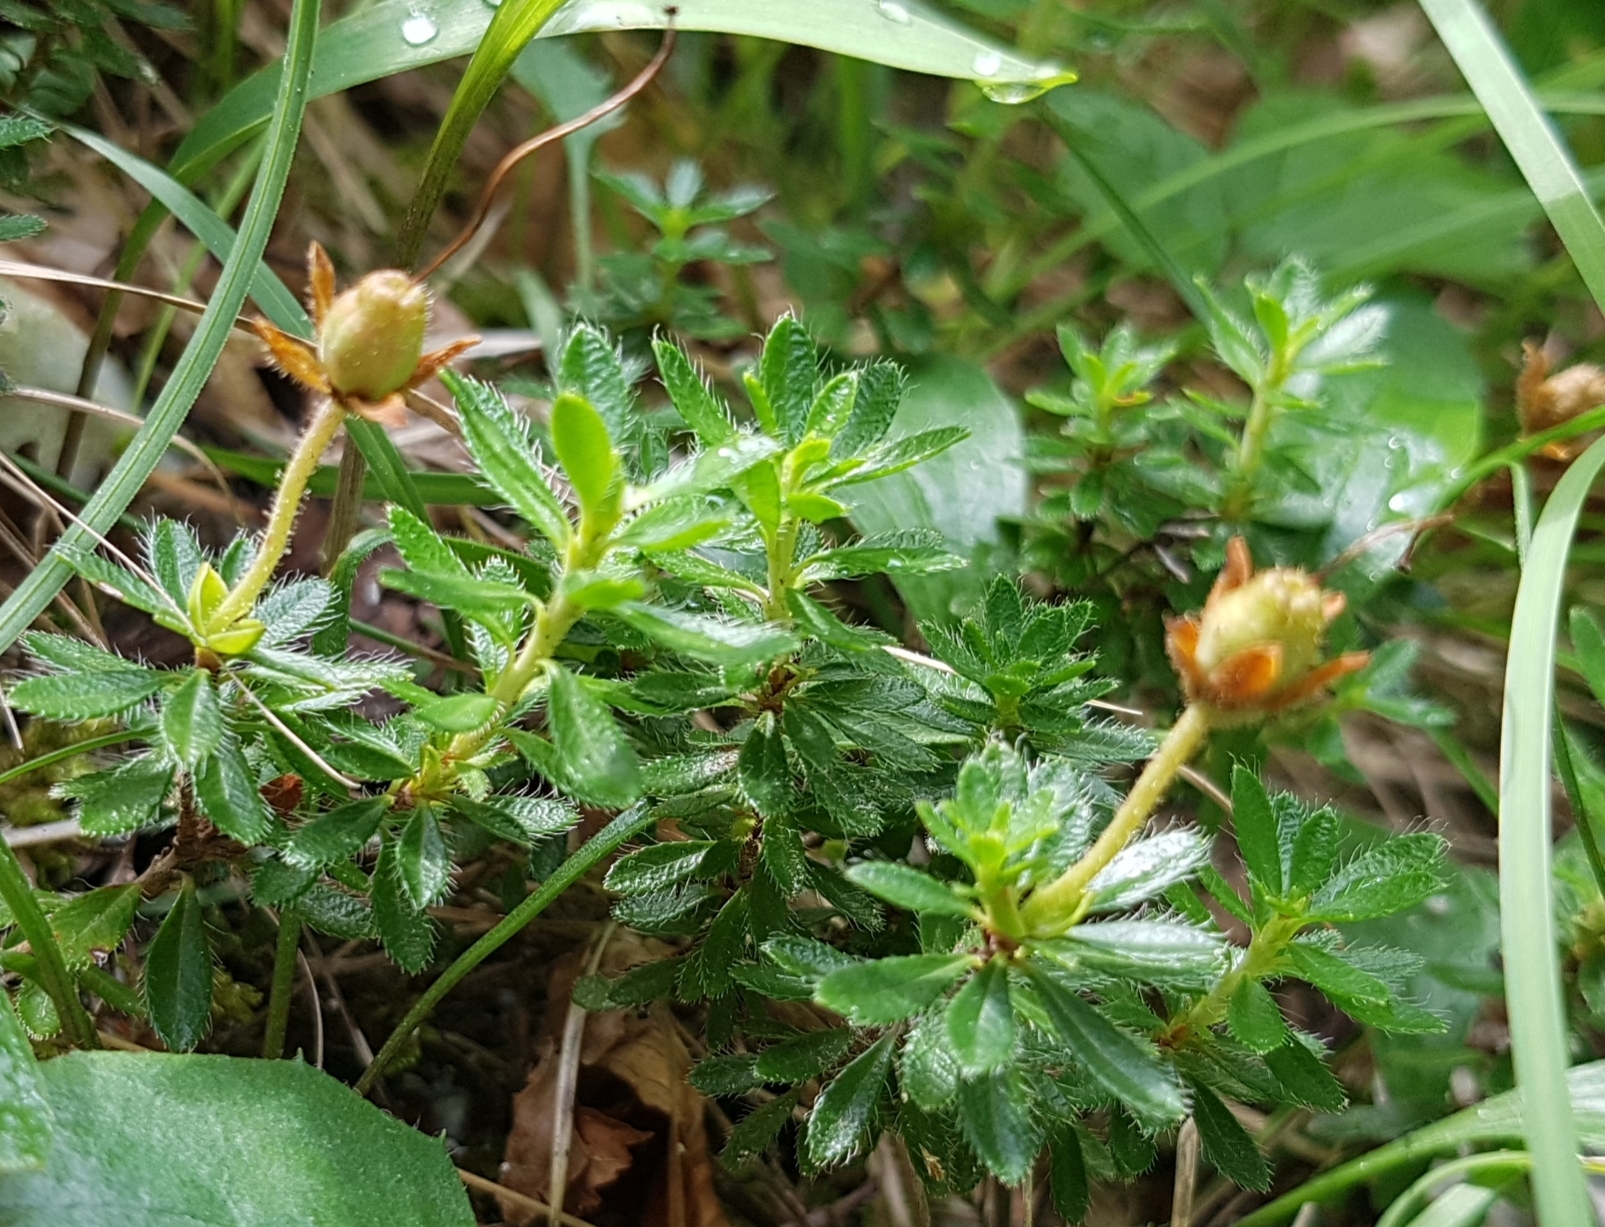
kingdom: Plantae
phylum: Tracheophyta
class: Magnoliopsida
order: Ericales
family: Ericaceae
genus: Rhodothamnus
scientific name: Rhodothamnus chamaecistus
